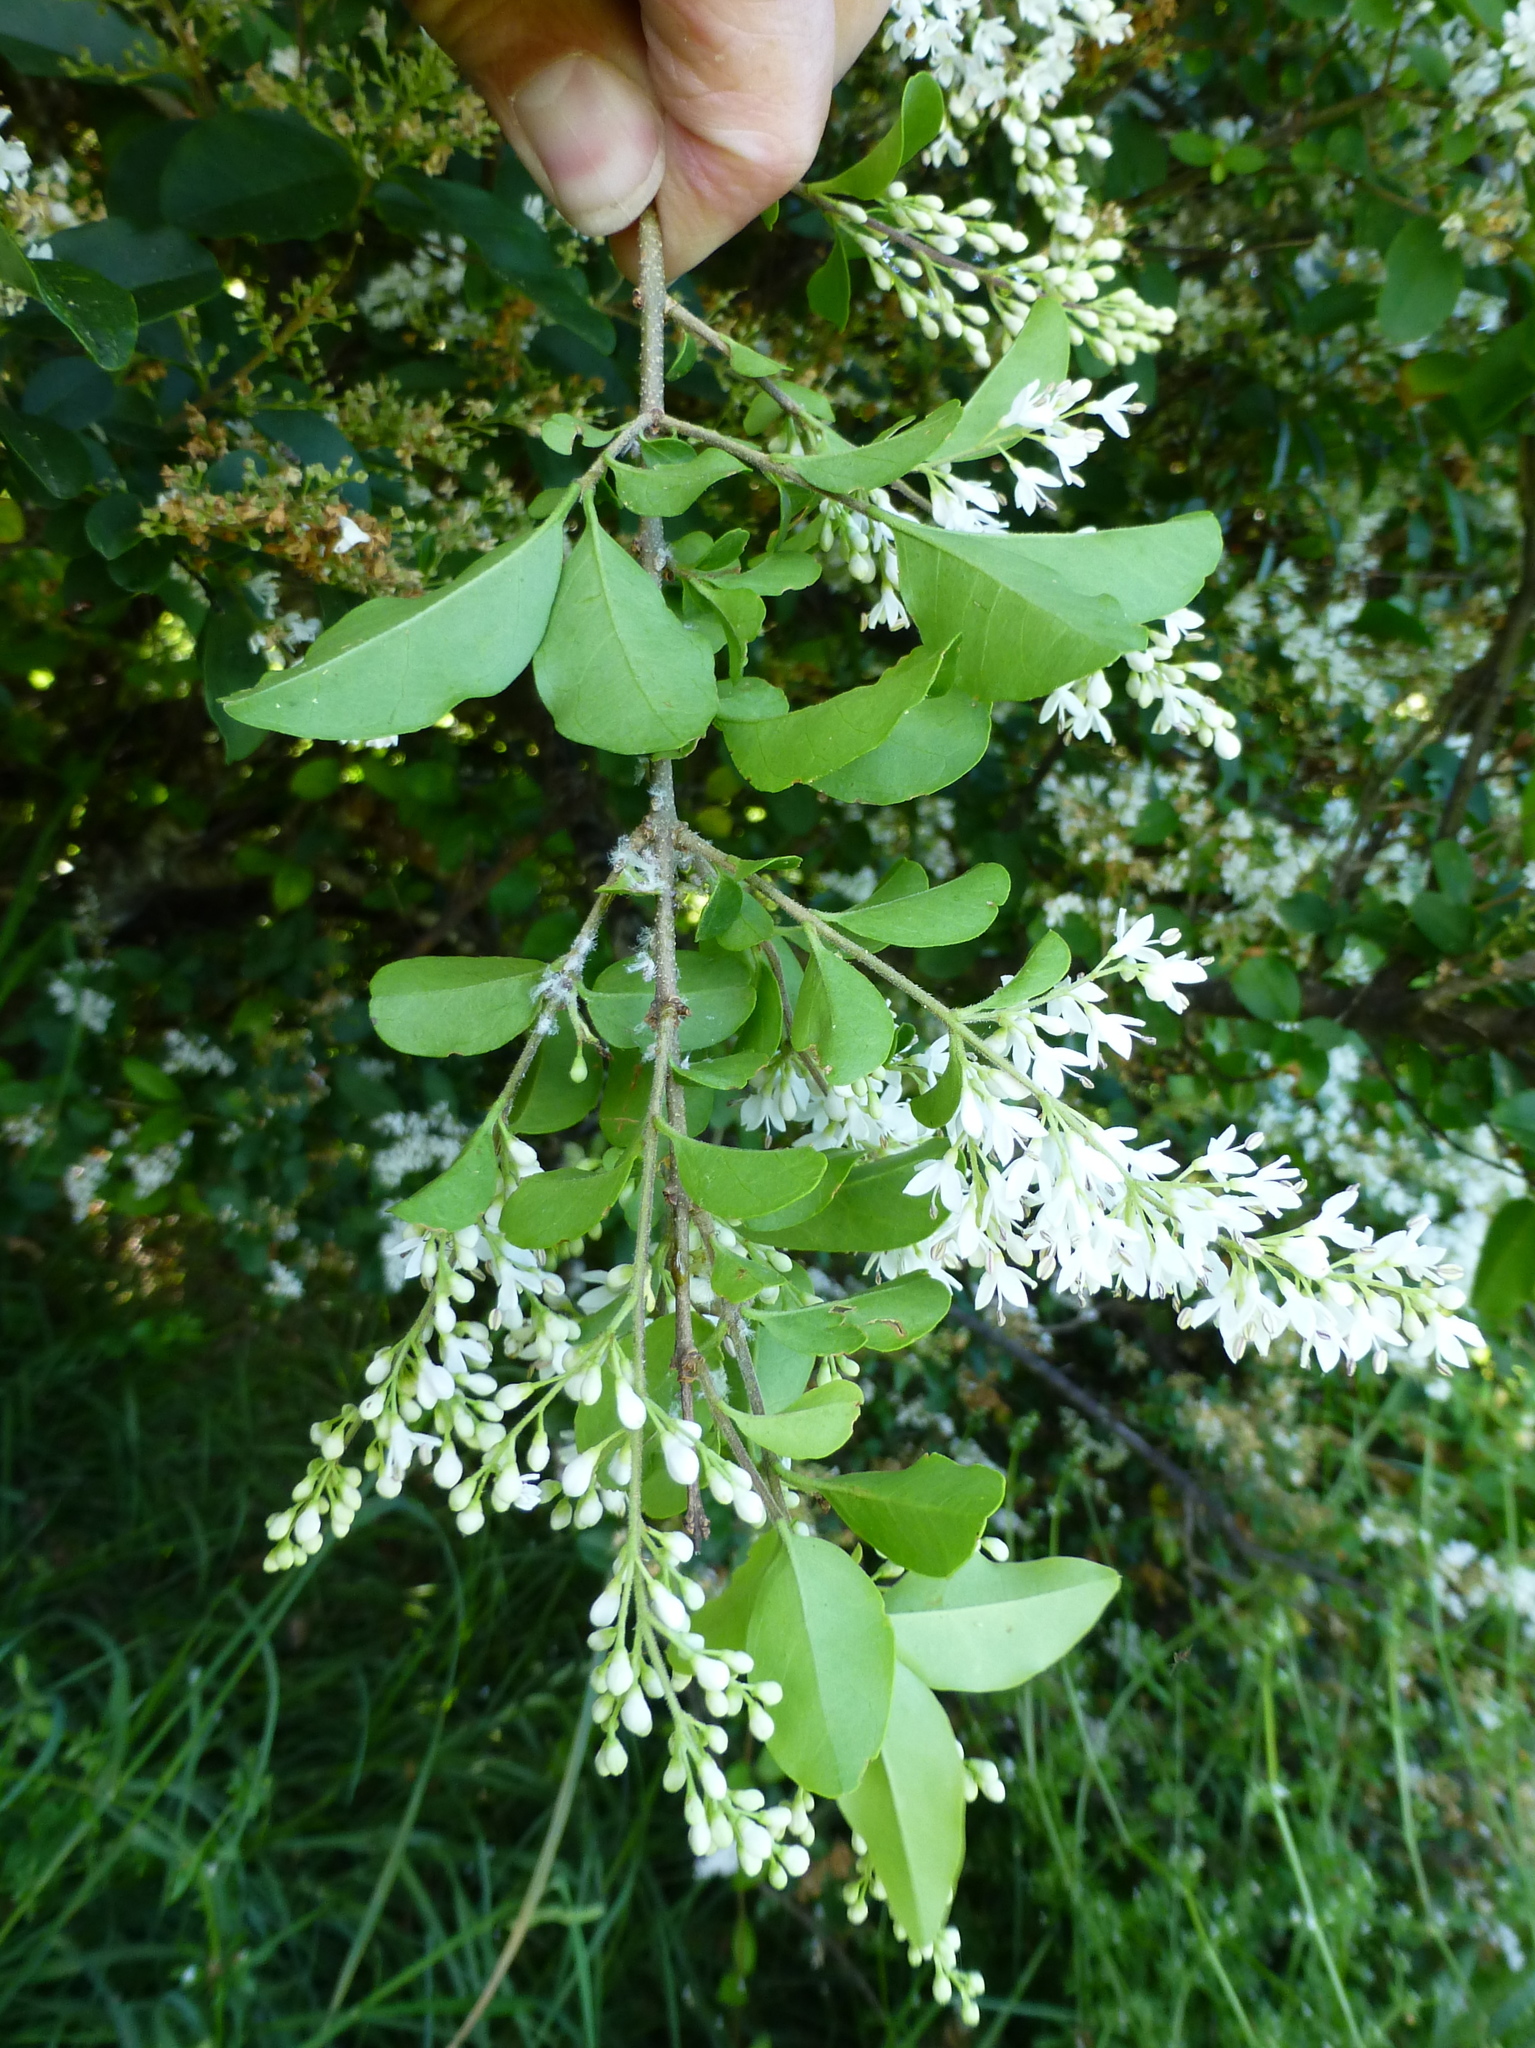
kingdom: Plantae
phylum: Tracheophyta
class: Magnoliopsida
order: Lamiales
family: Oleaceae
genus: Ligustrum
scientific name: Ligustrum sinense
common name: Chinese privet
